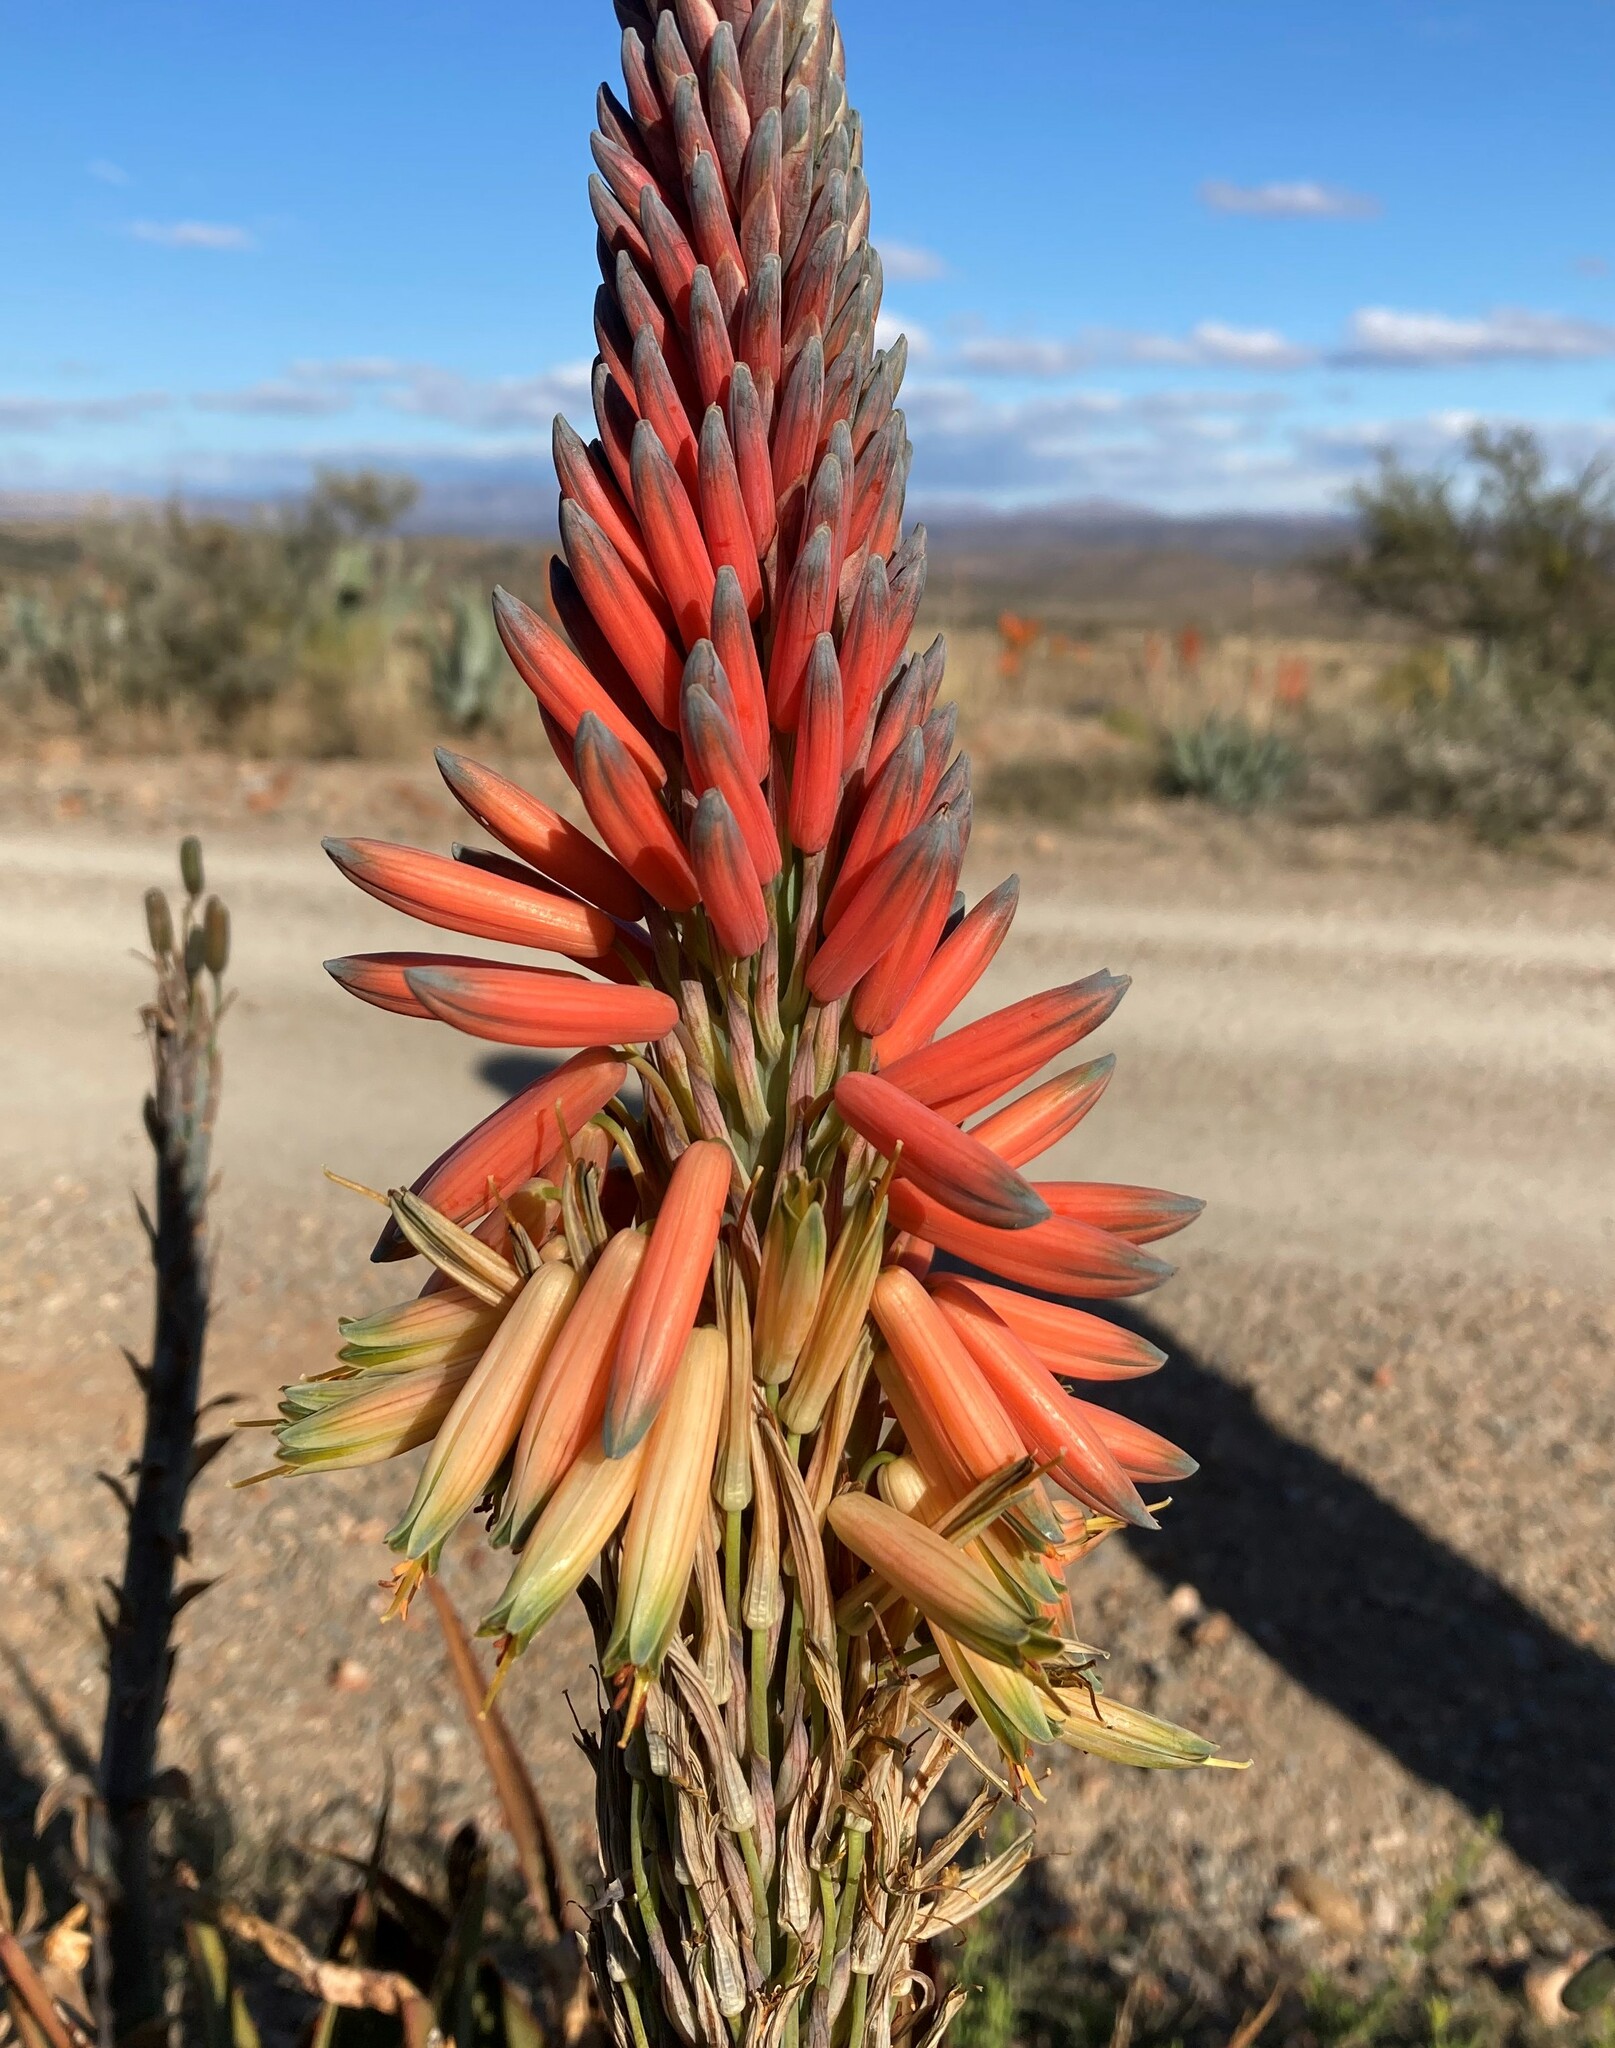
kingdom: Plantae
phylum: Tracheophyta
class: Liliopsida
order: Asparagales
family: Asphodelaceae
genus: Aloe
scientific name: Aloe microstigma
